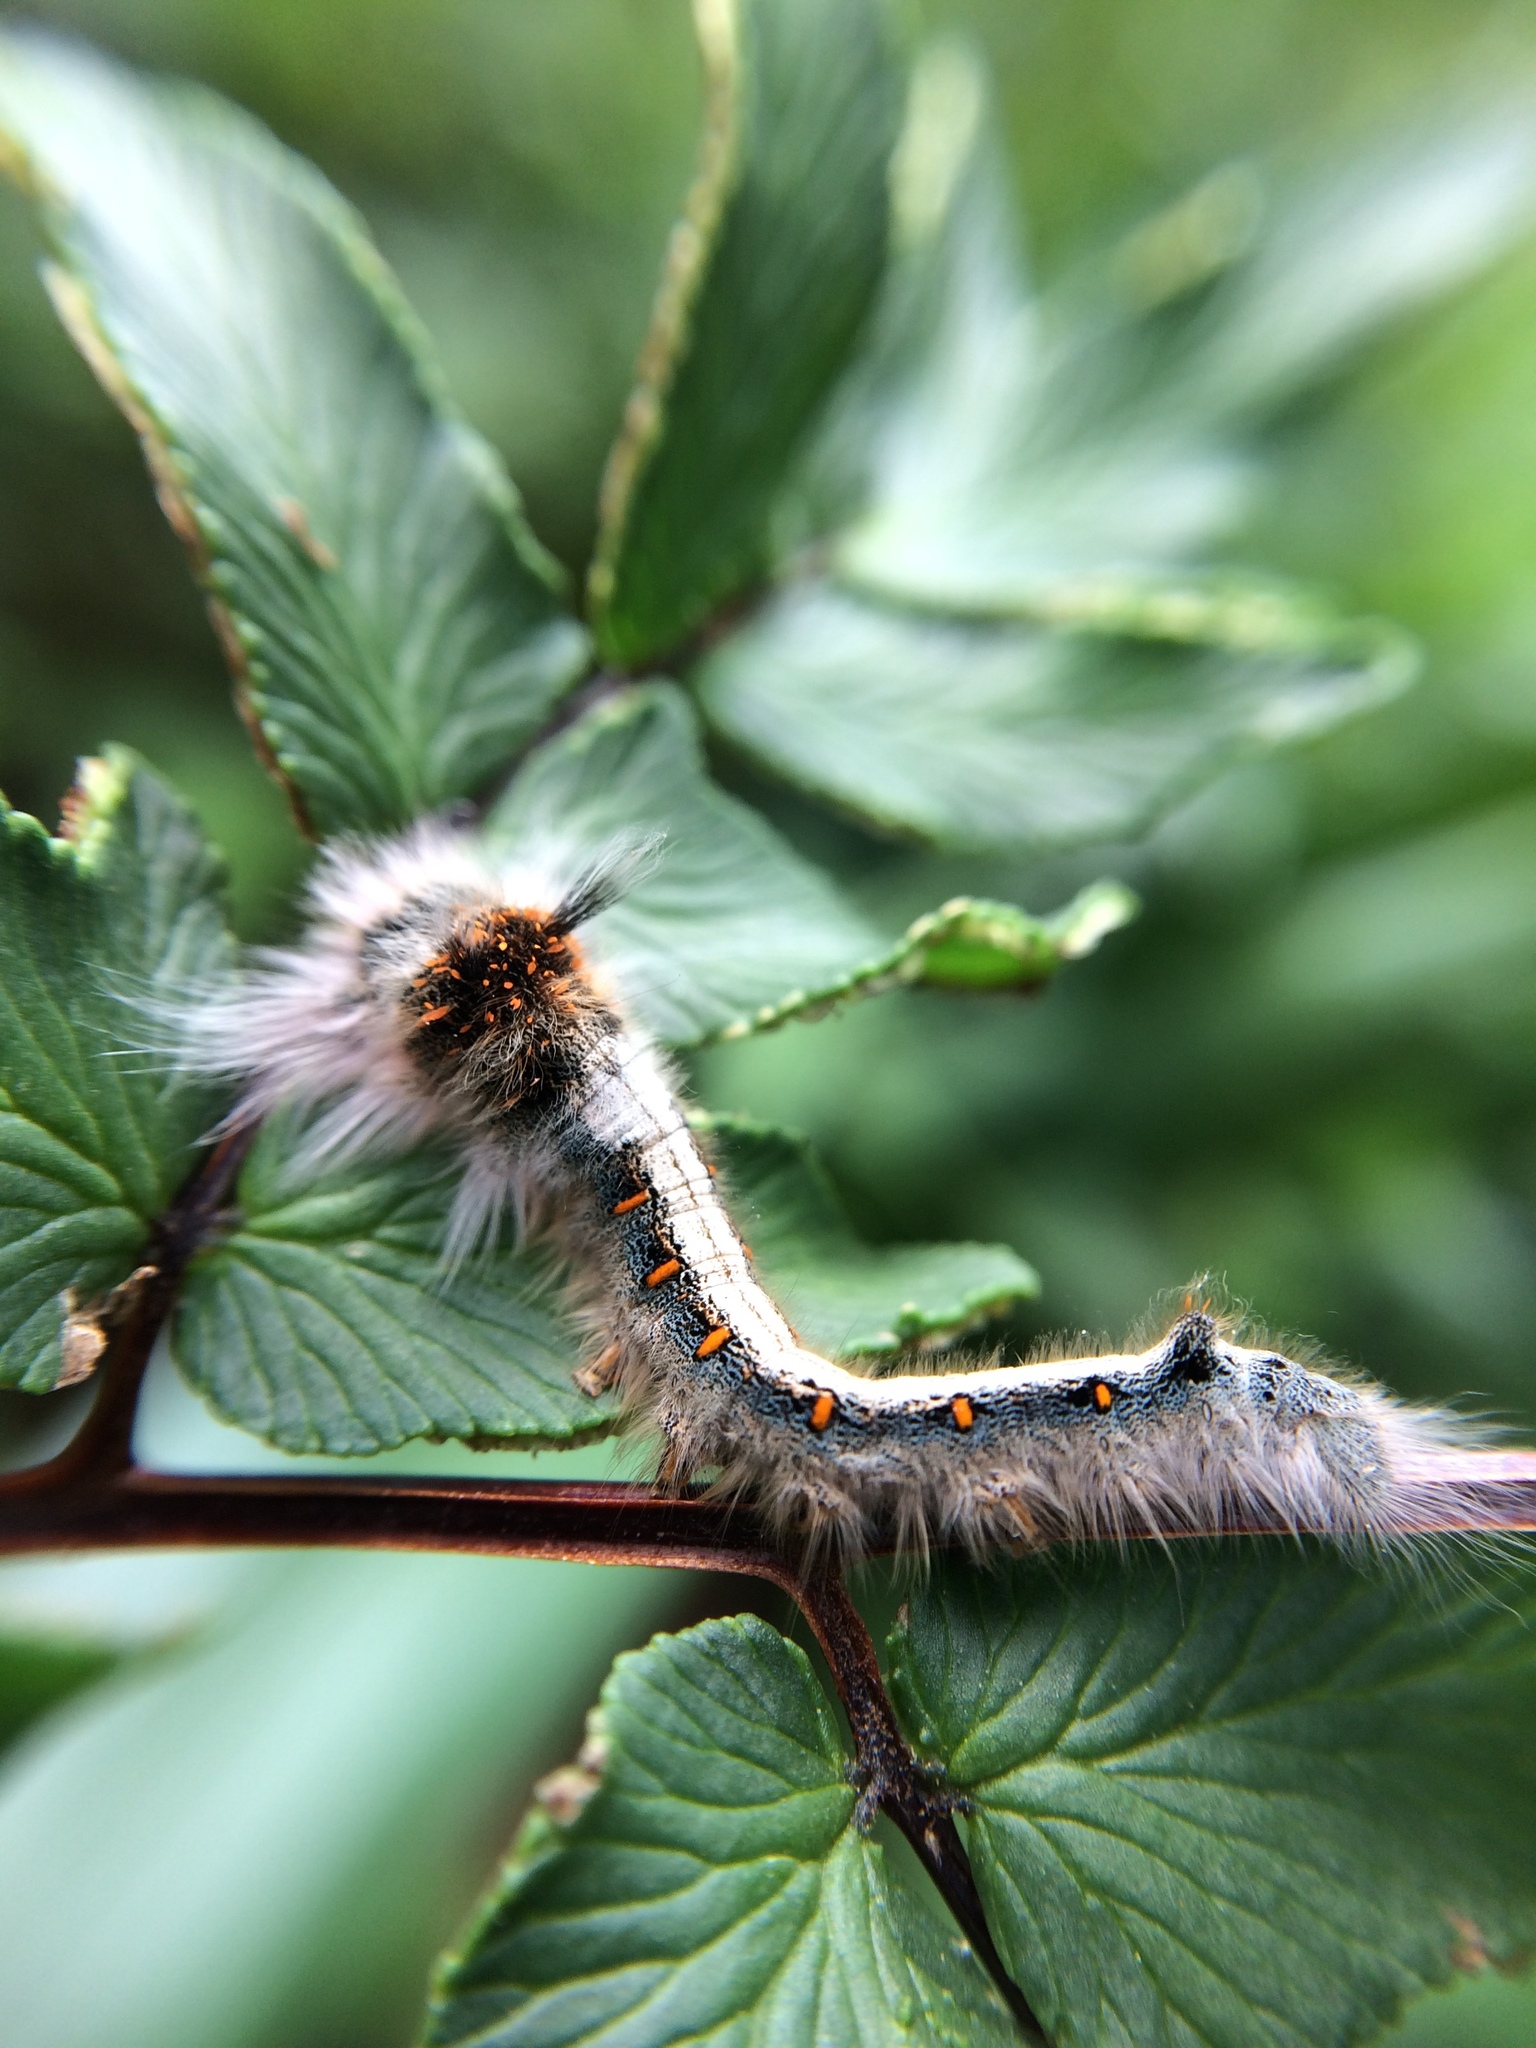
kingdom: Animalia
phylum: Arthropoda
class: Insecta
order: Lepidoptera
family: Lasiocampidae
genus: Leipoxais
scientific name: Leipoxais peraffinis
